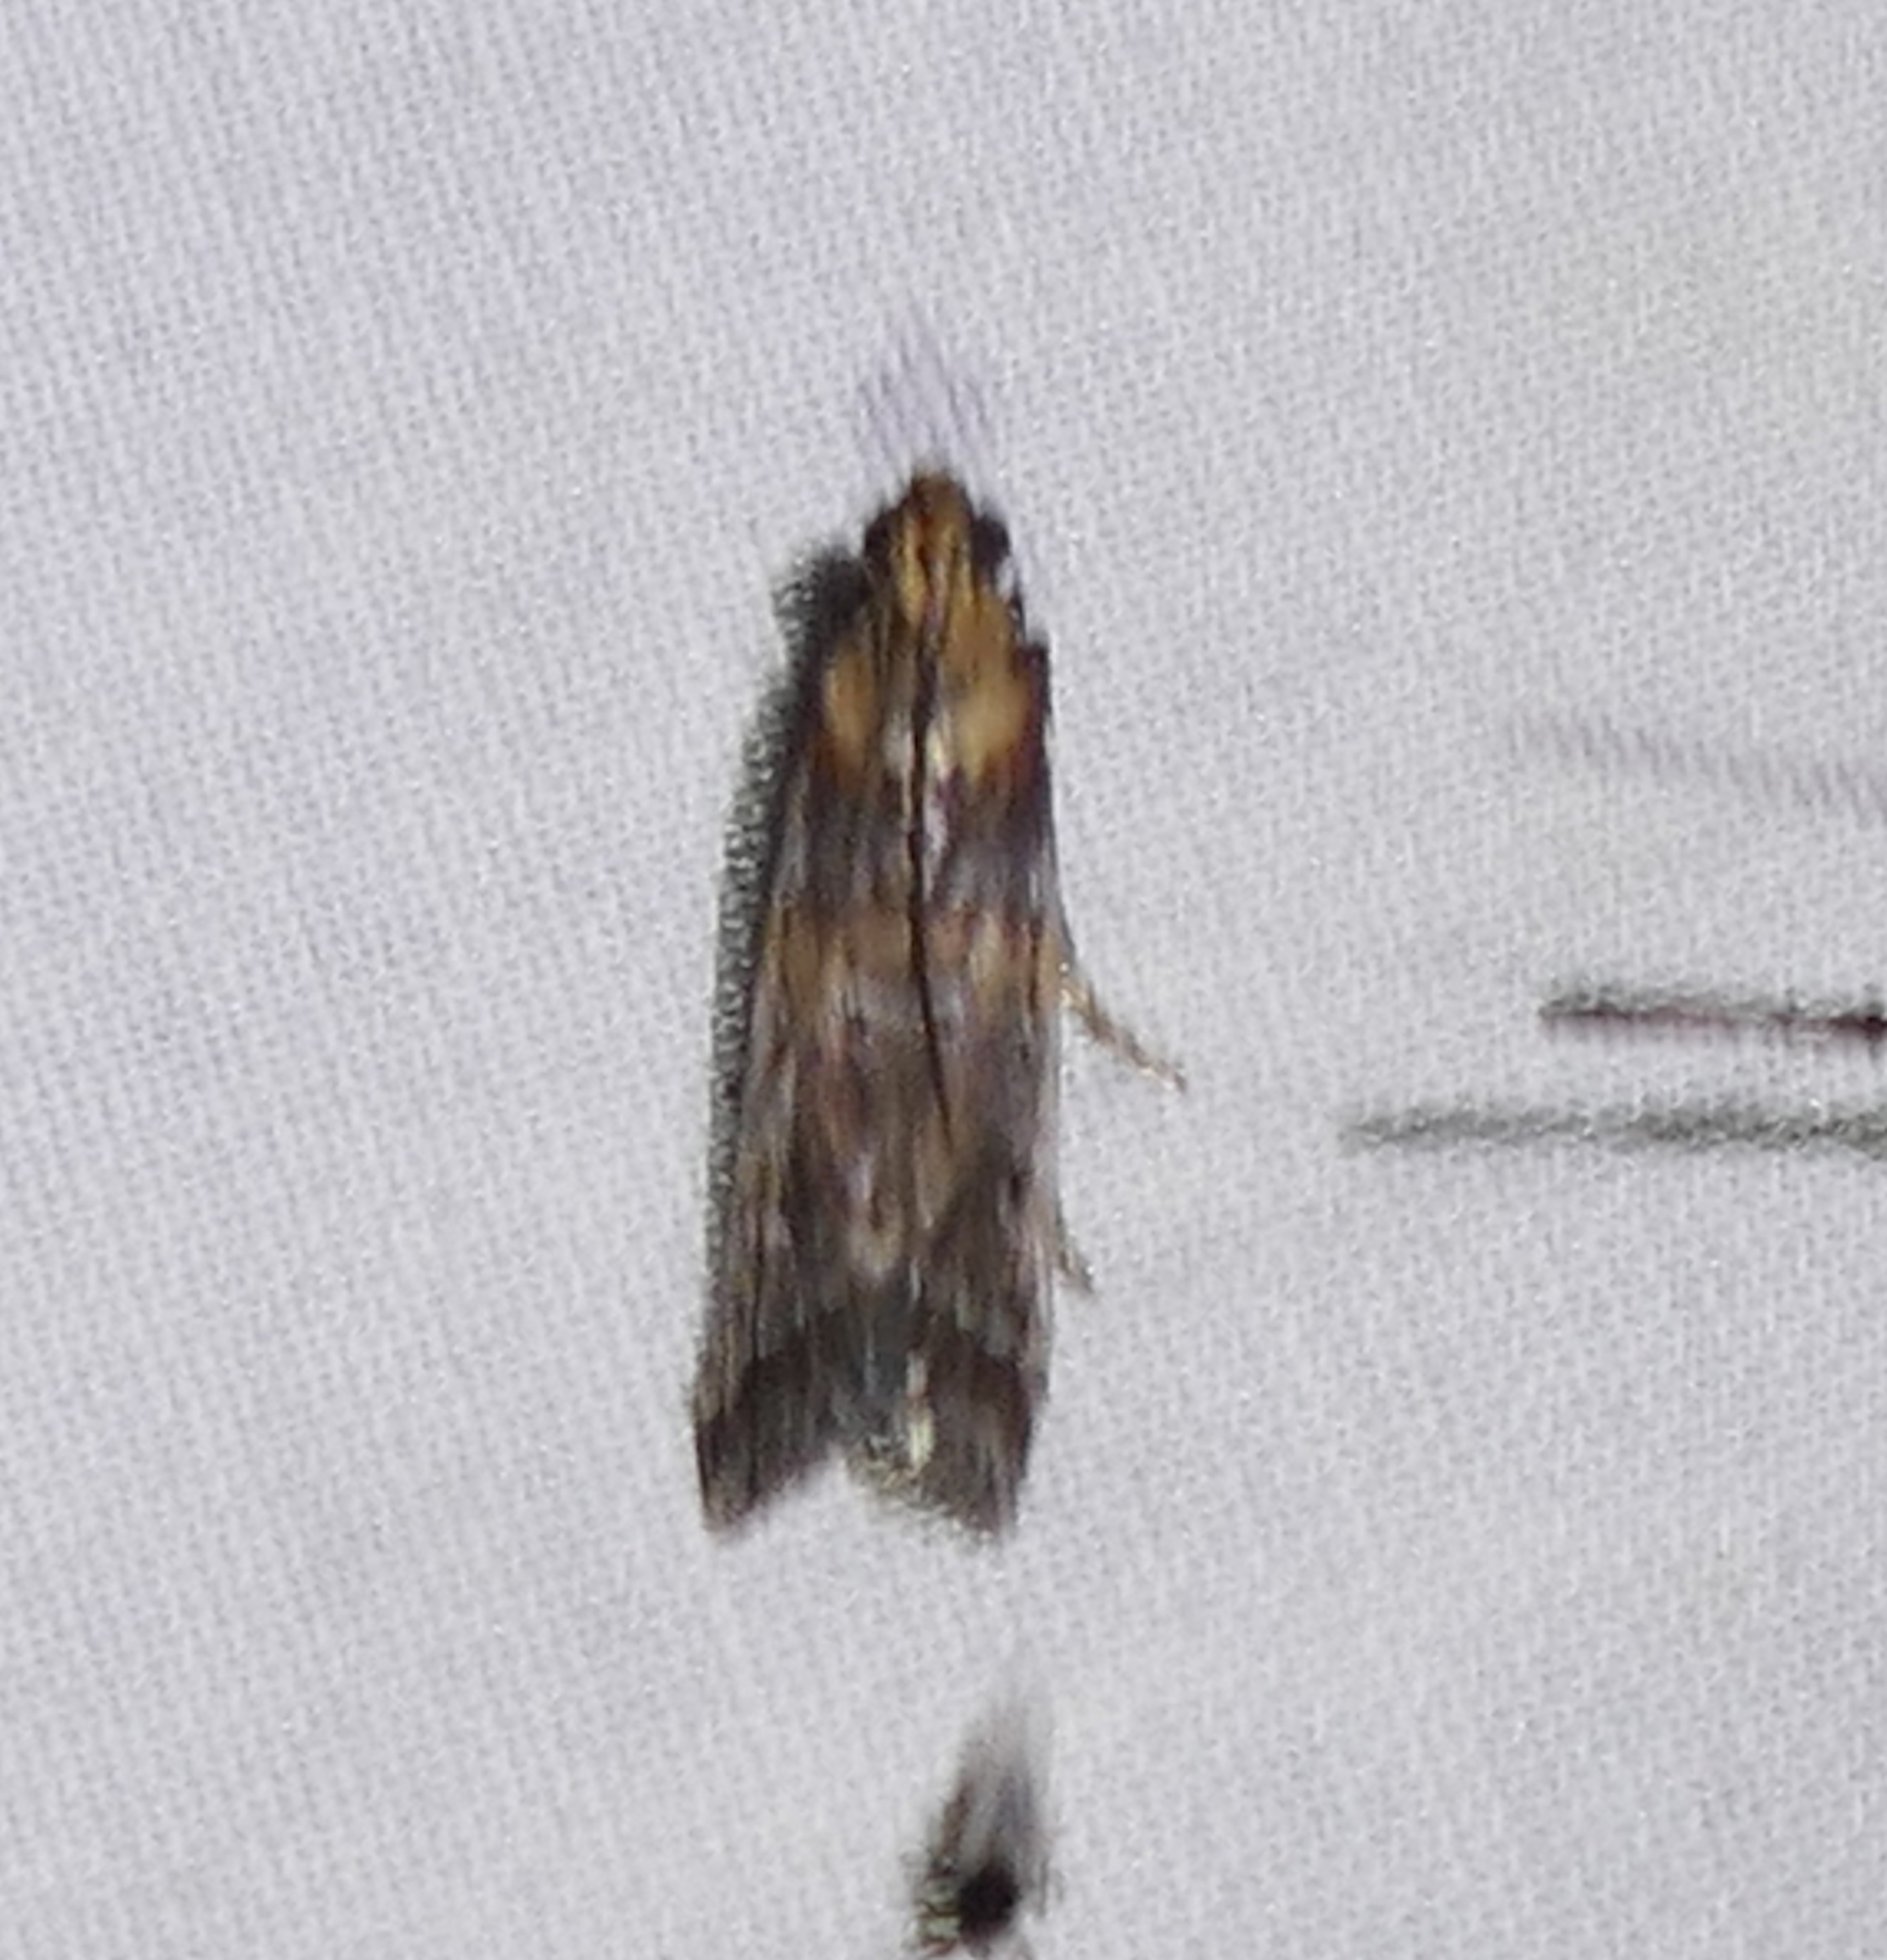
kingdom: Animalia
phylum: Arthropoda
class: Insecta
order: Lepidoptera
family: Pyralidae
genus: Adelphia
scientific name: Adelphia petrella
